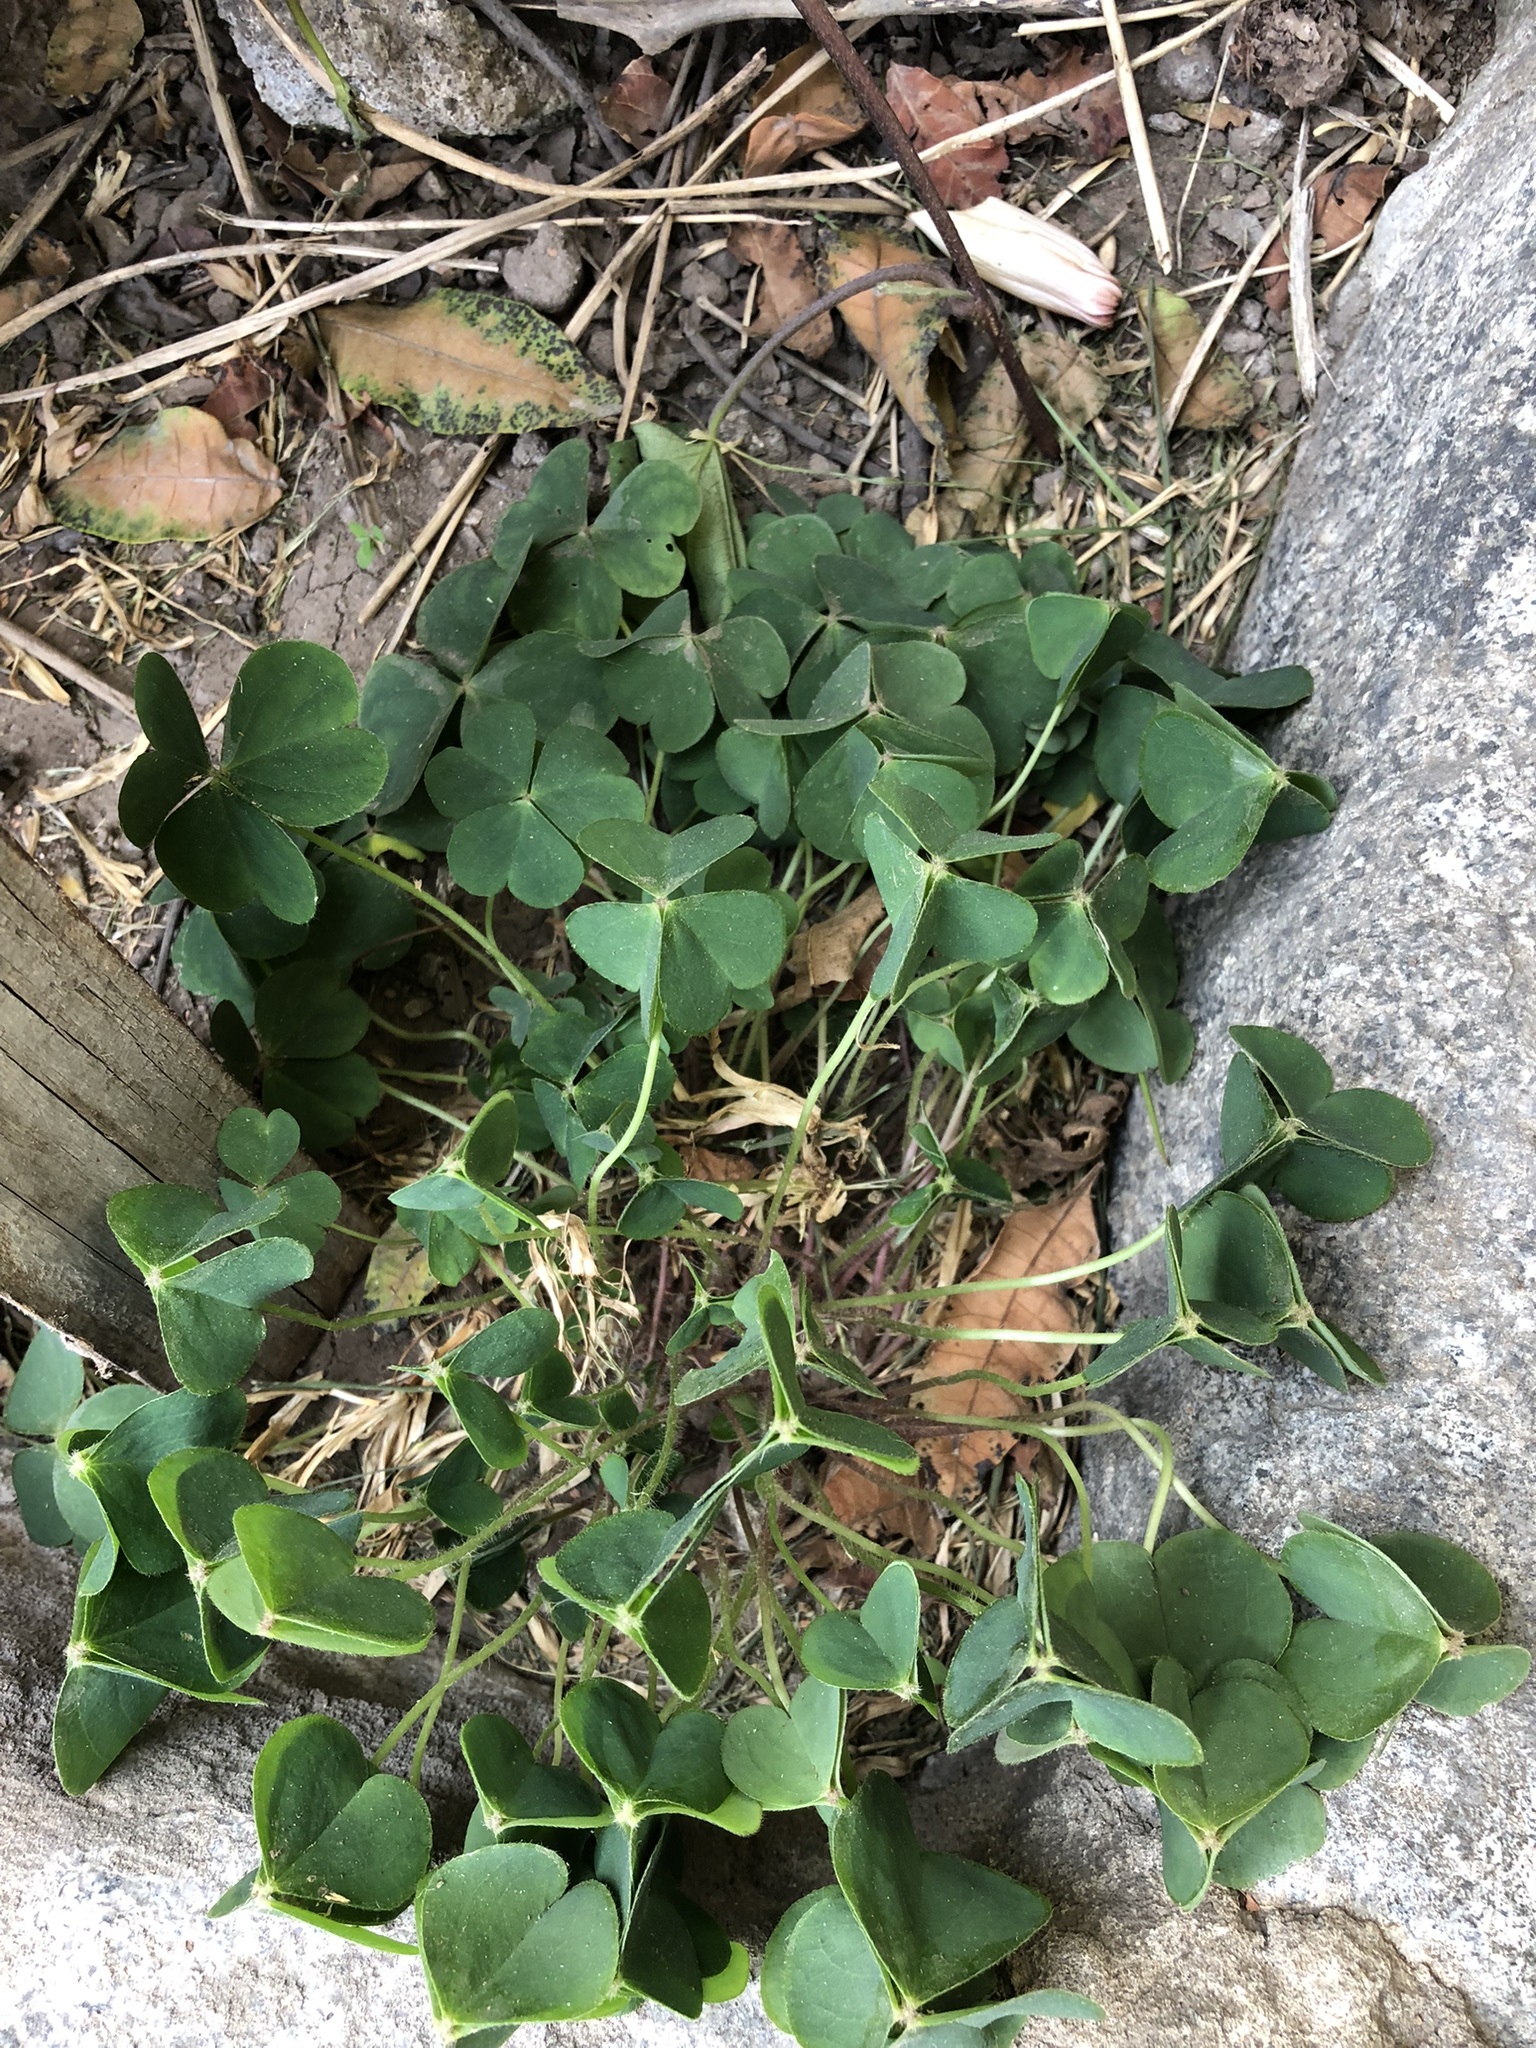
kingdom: Plantae
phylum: Tracheophyta
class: Magnoliopsida
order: Oxalidales
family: Oxalidaceae
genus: Oxalis
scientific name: Oxalis debilis
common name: Large-flowered pink-sorrel
